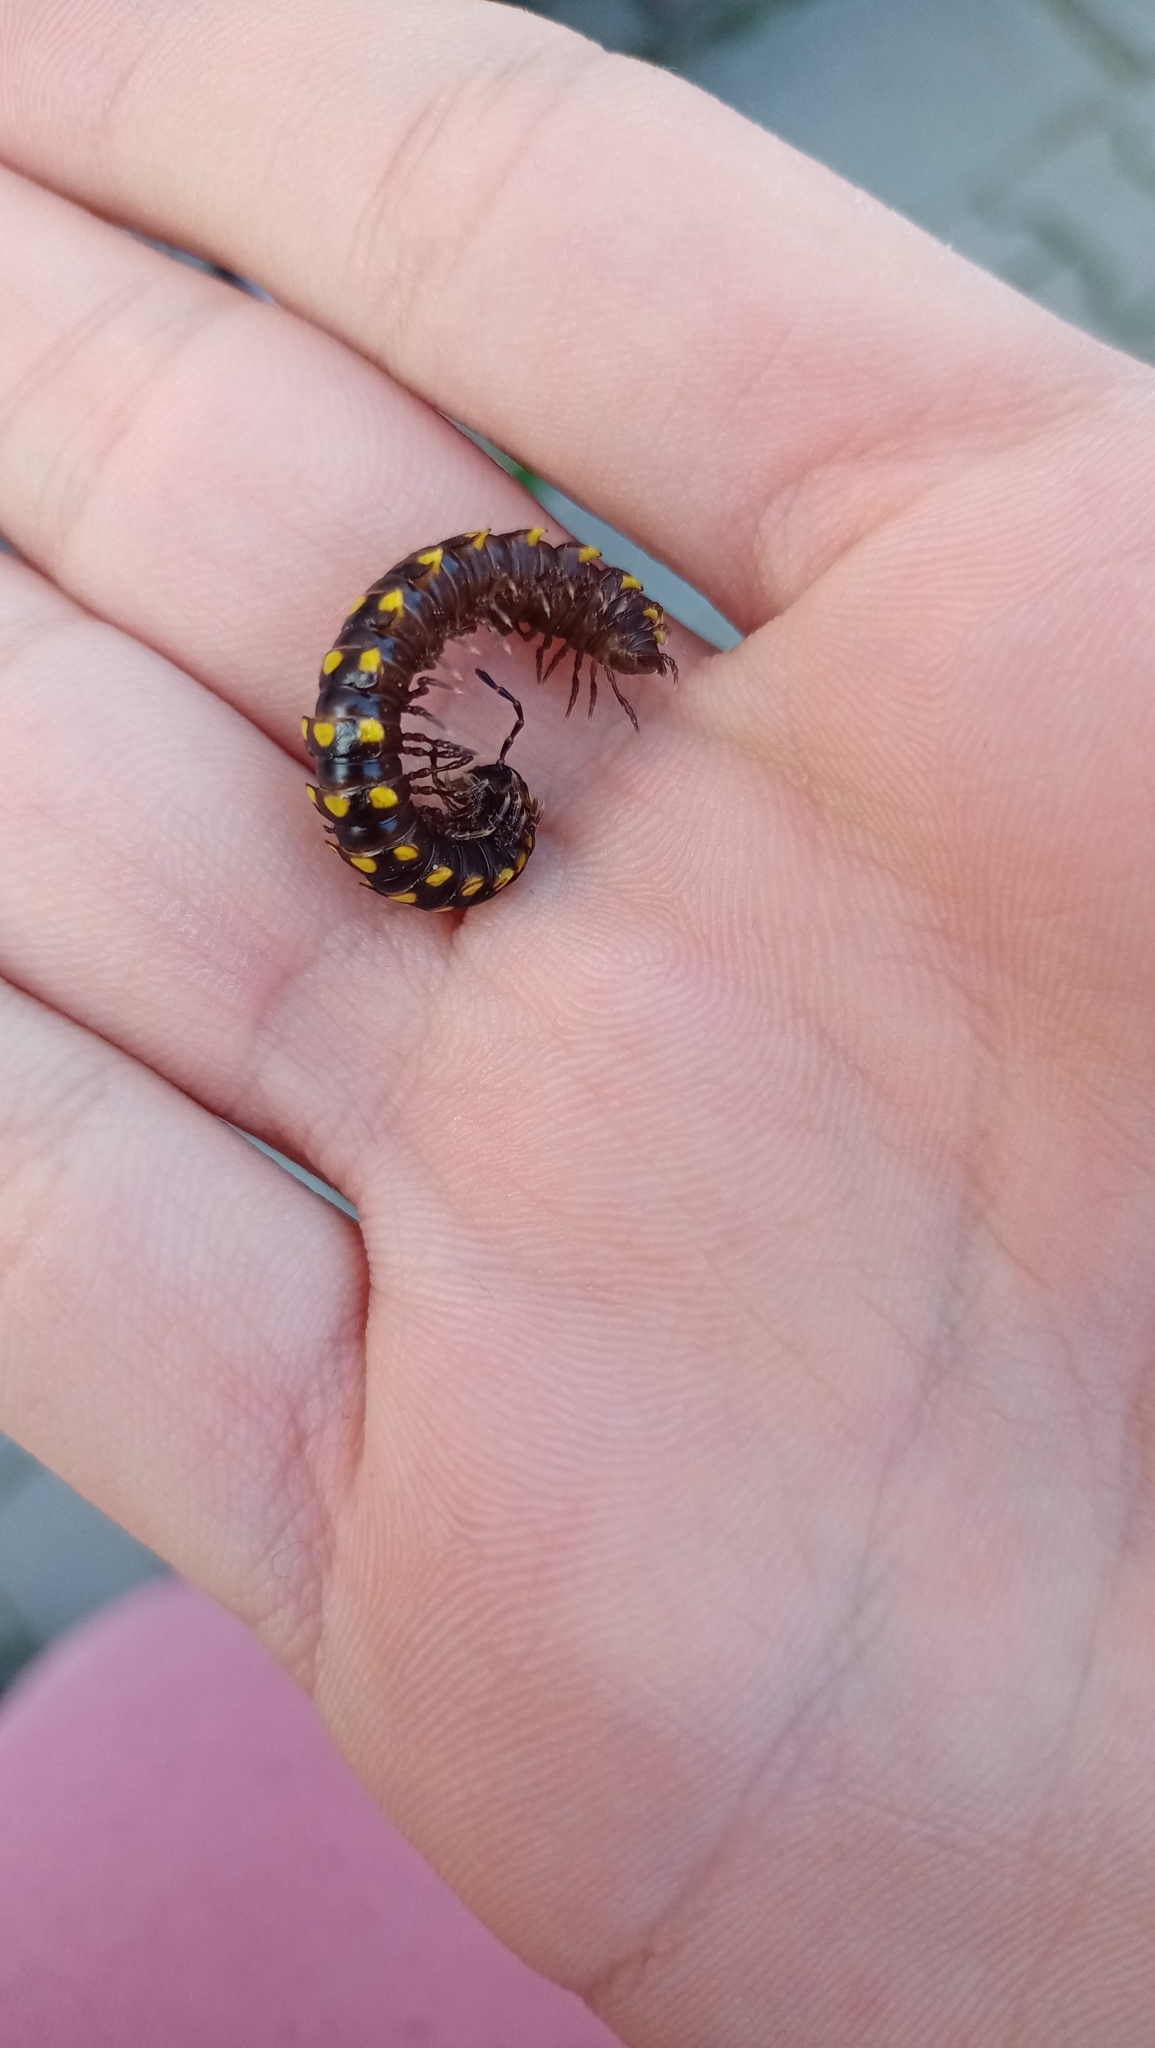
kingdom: Animalia
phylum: Arthropoda
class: Diplopoda
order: Polydesmida
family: Xystodesmidae
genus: Melaphe
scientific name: Melaphe vestita
